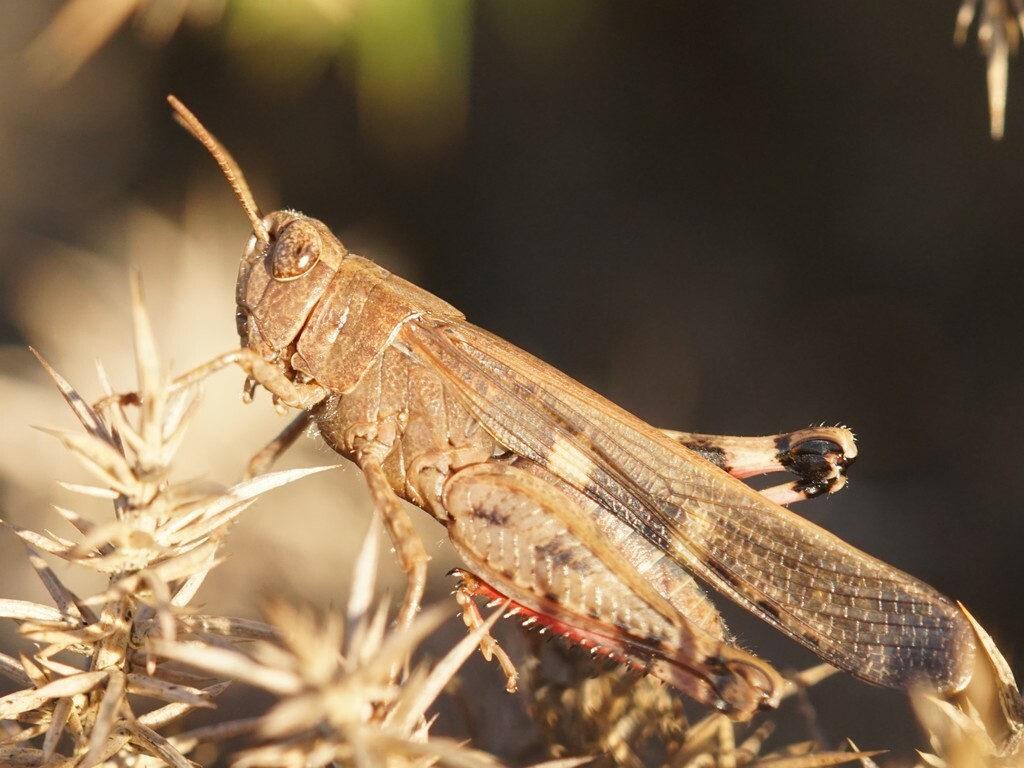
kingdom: Animalia
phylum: Arthropoda
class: Insecta
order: Orthoptera
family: Acrididae
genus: Aiolopus
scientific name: Aiolopus strepens
